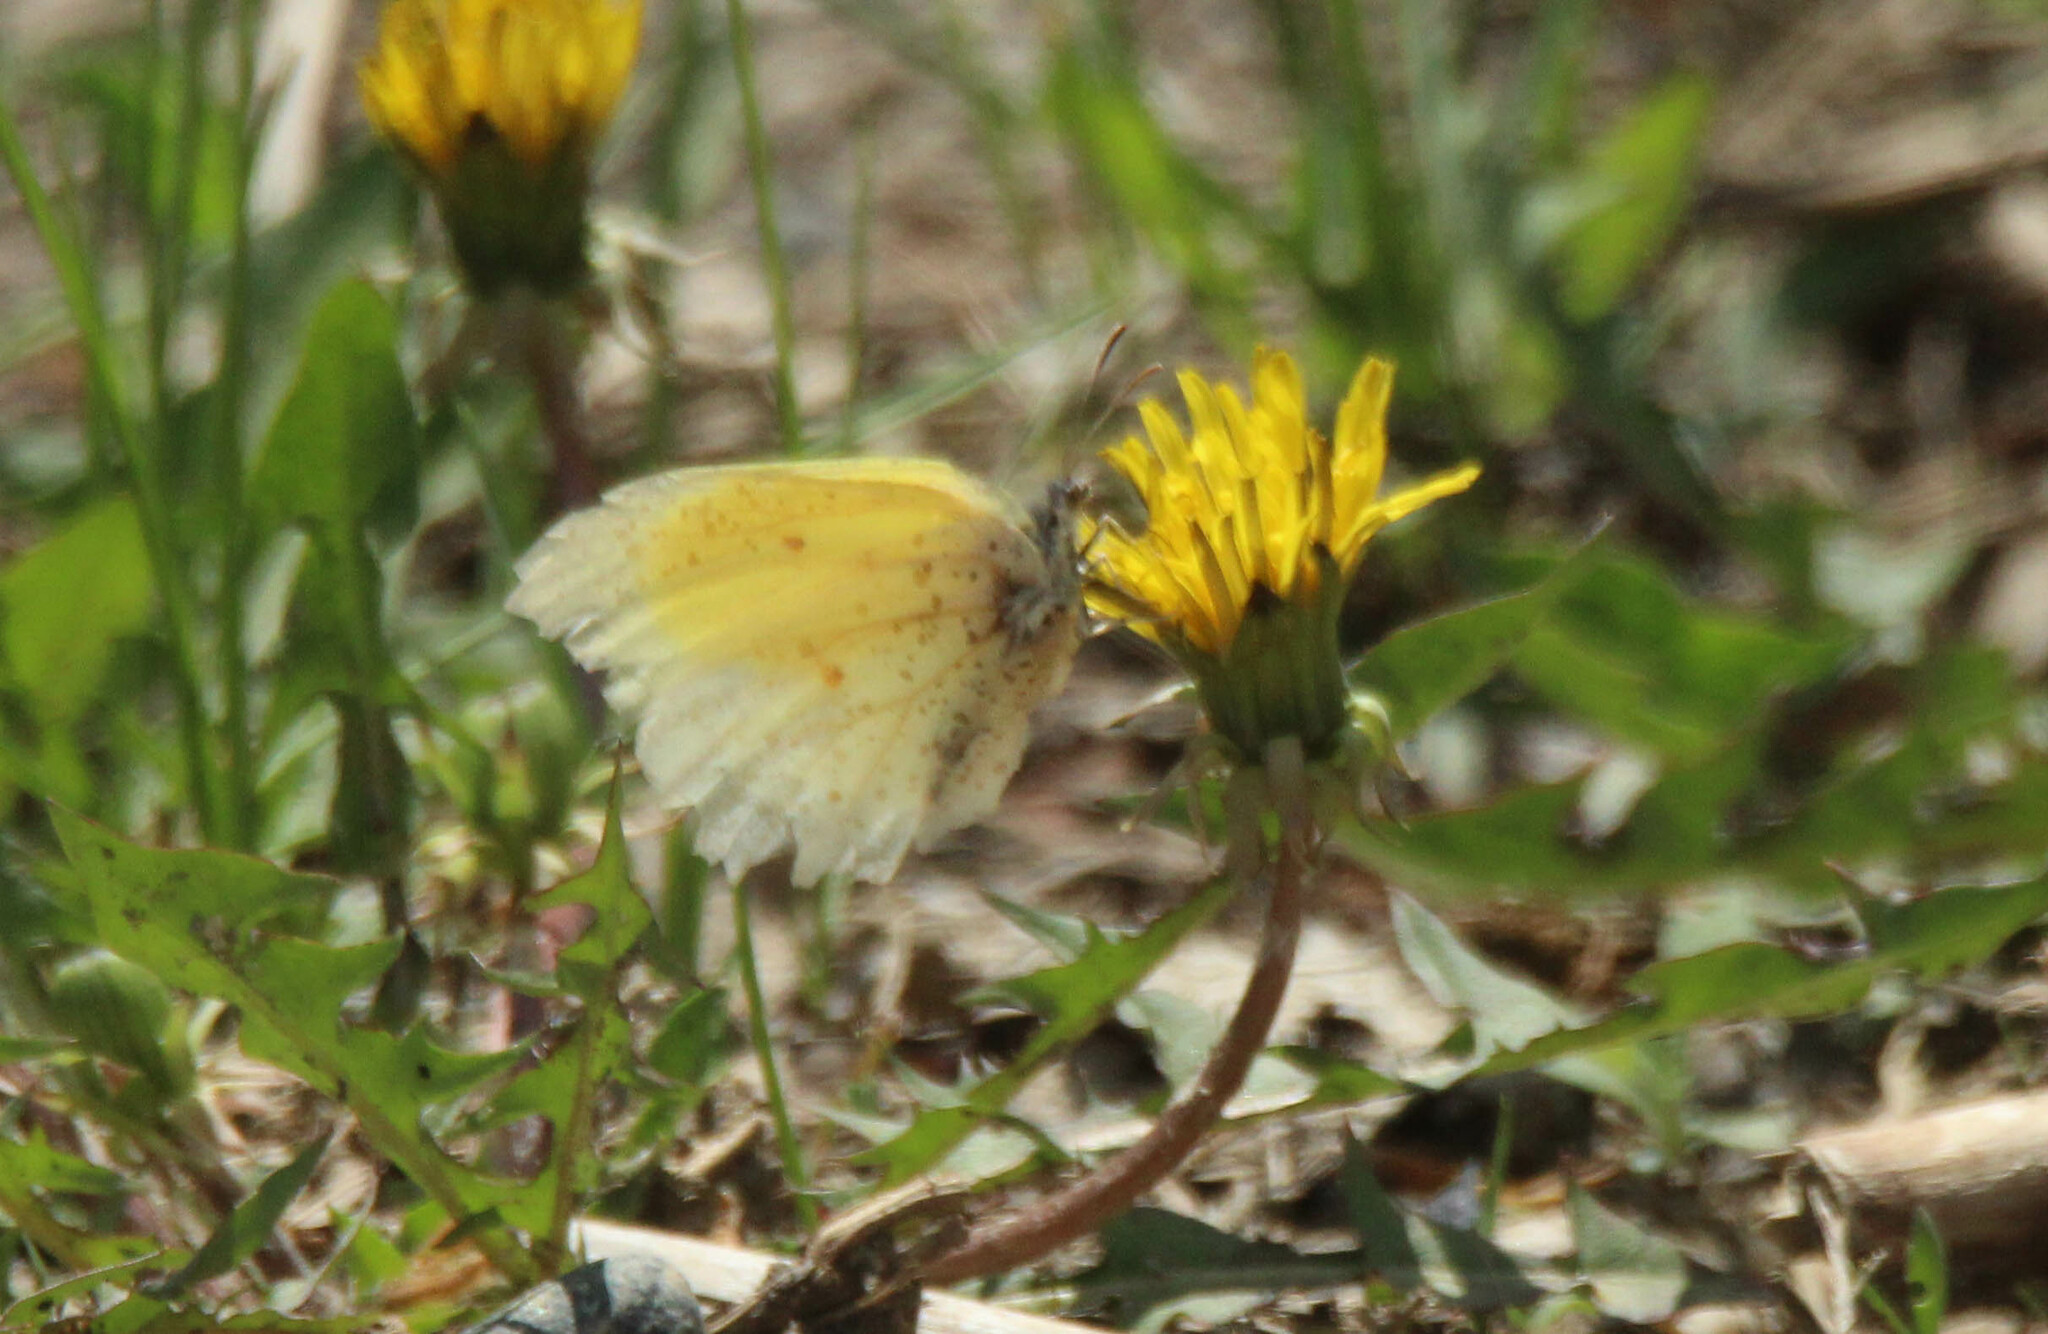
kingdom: Animalia
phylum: Arthropoda
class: Insecta
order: Lepidoptera
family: Pieridae
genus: Gonepteryx
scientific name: Gonepteryx aspasia
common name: Lesser brimstone
